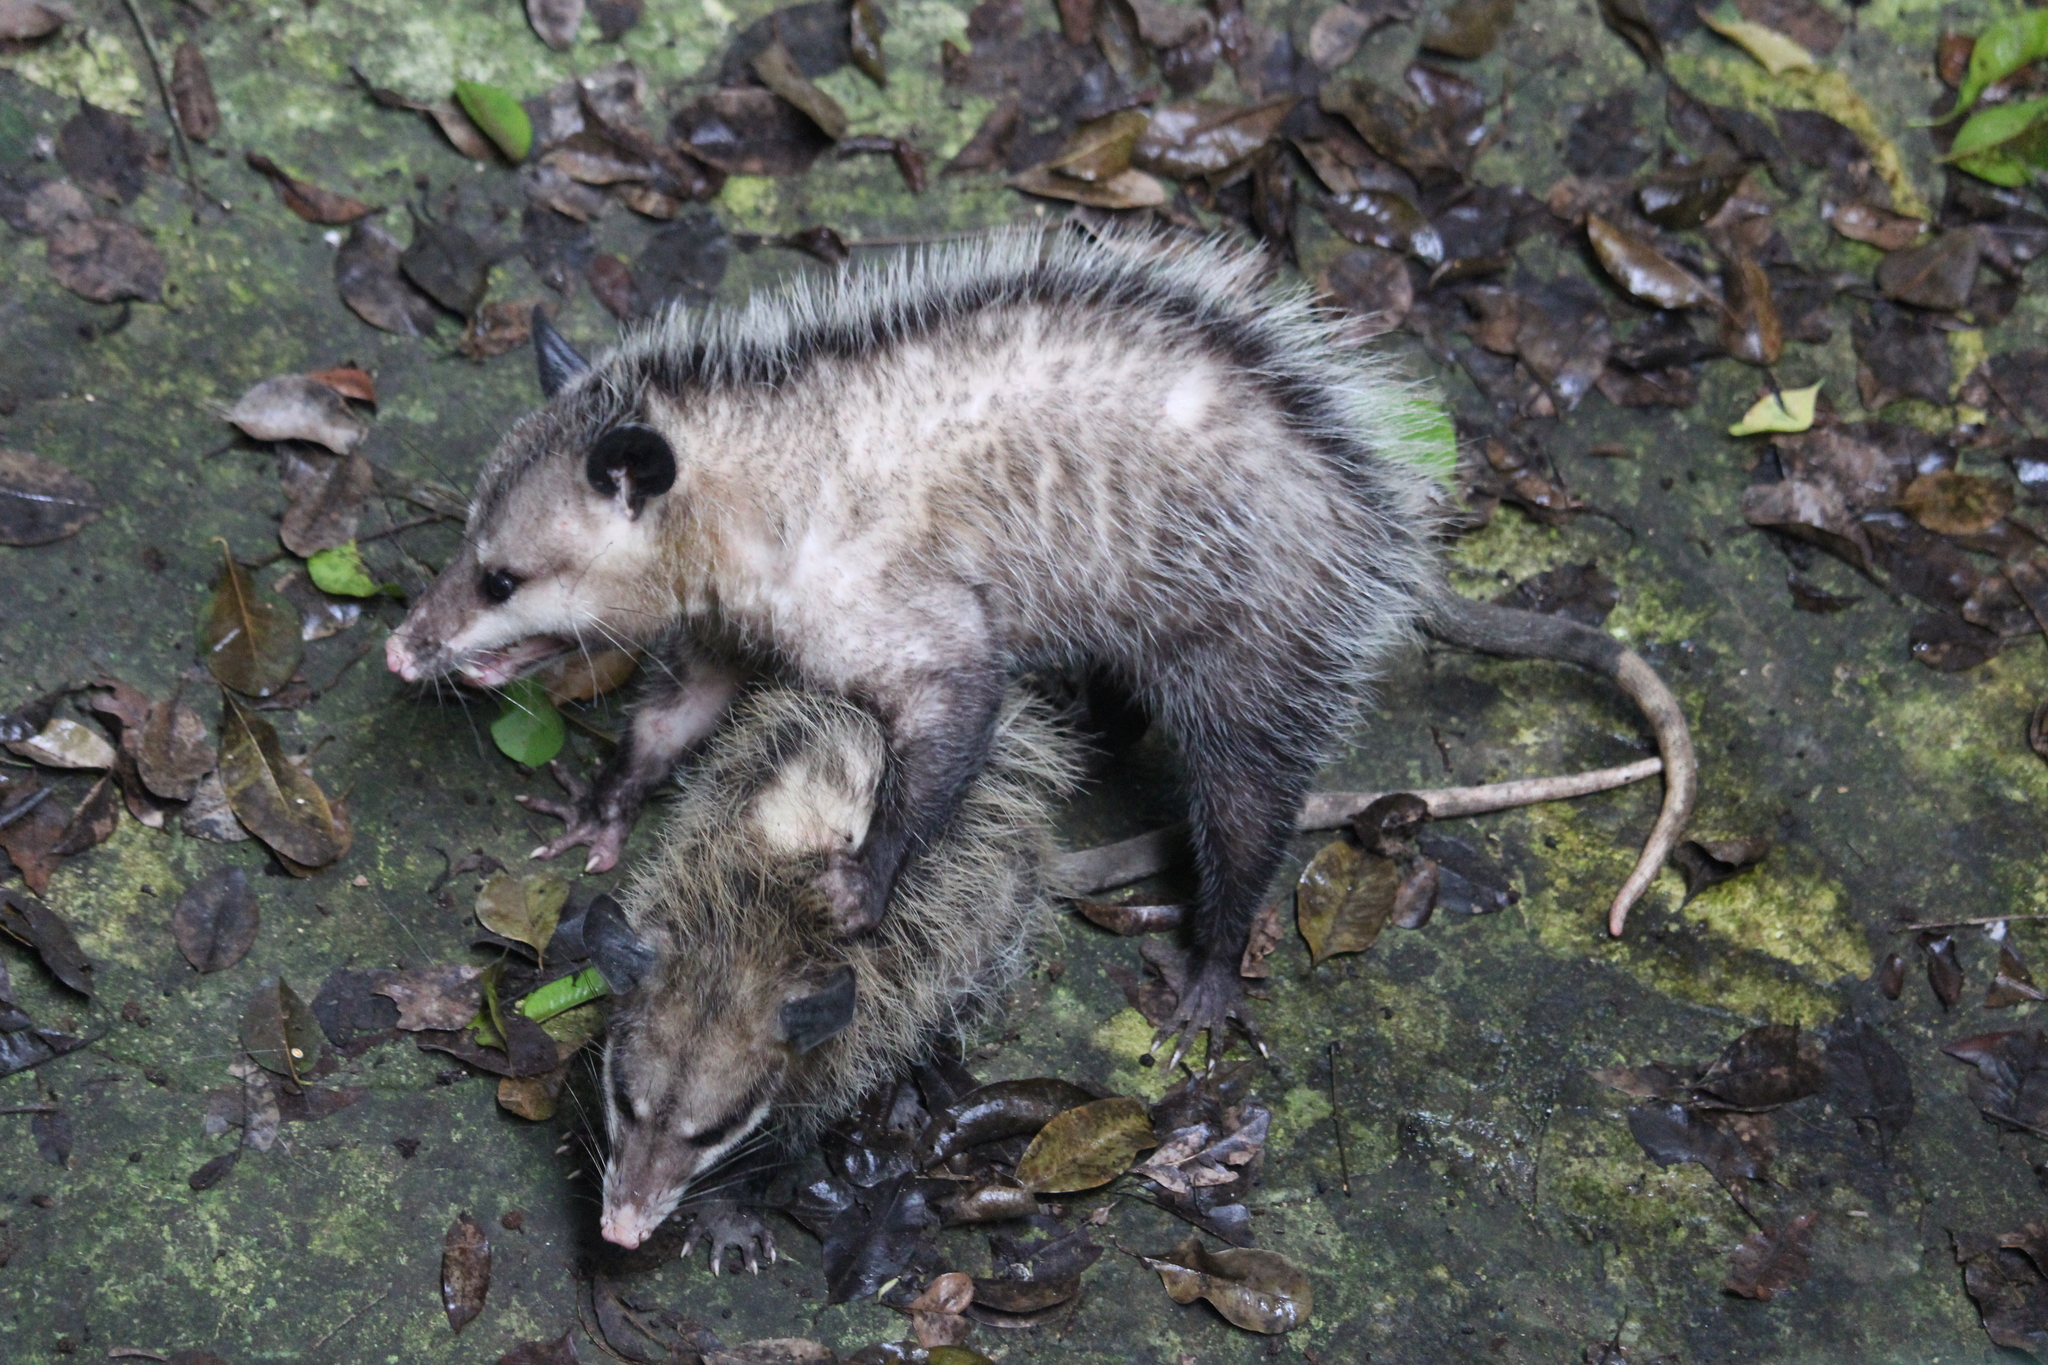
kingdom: Animalia
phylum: Chordata
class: Mammalia
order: Didelphimorphia
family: Didelphidae
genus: Didelphis
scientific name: Didelphis
